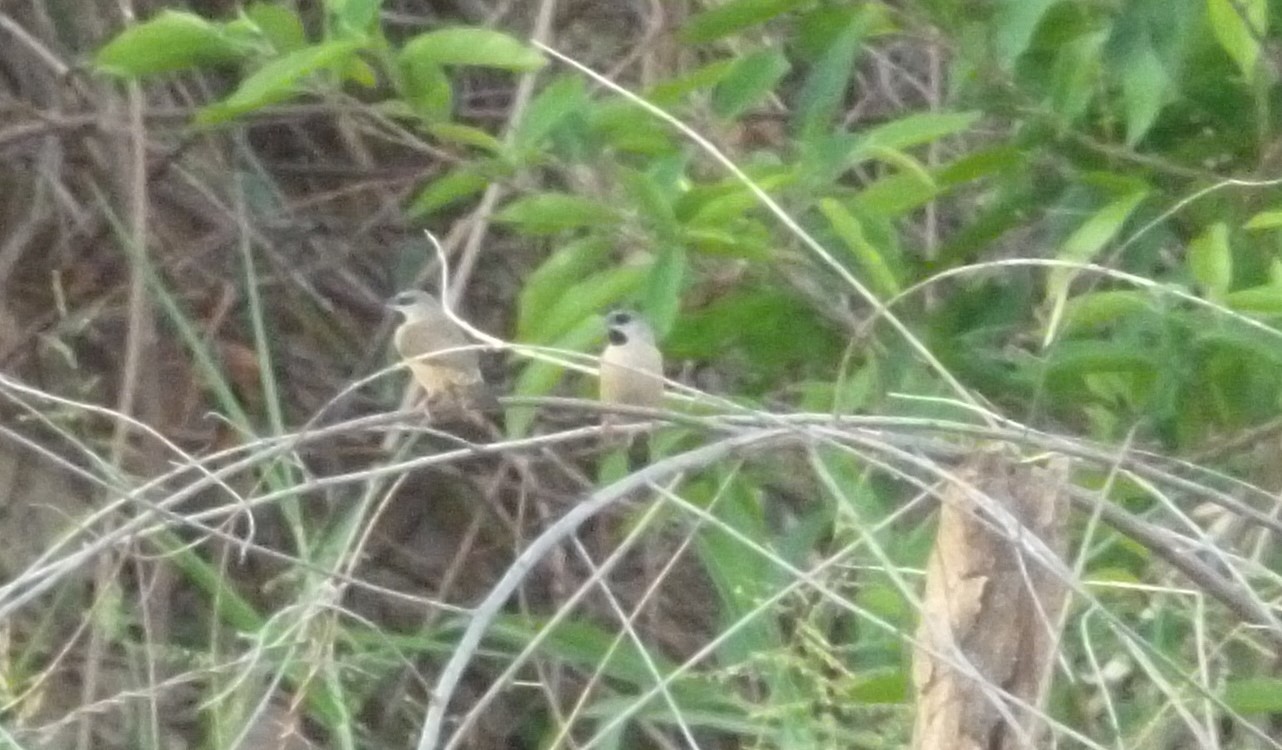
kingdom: Animalia
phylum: Chordata
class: Aves
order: Passeriformes
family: Estrildidae
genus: Lemuresthes
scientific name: Lemuresthes nana
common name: Madagascar mannikin
